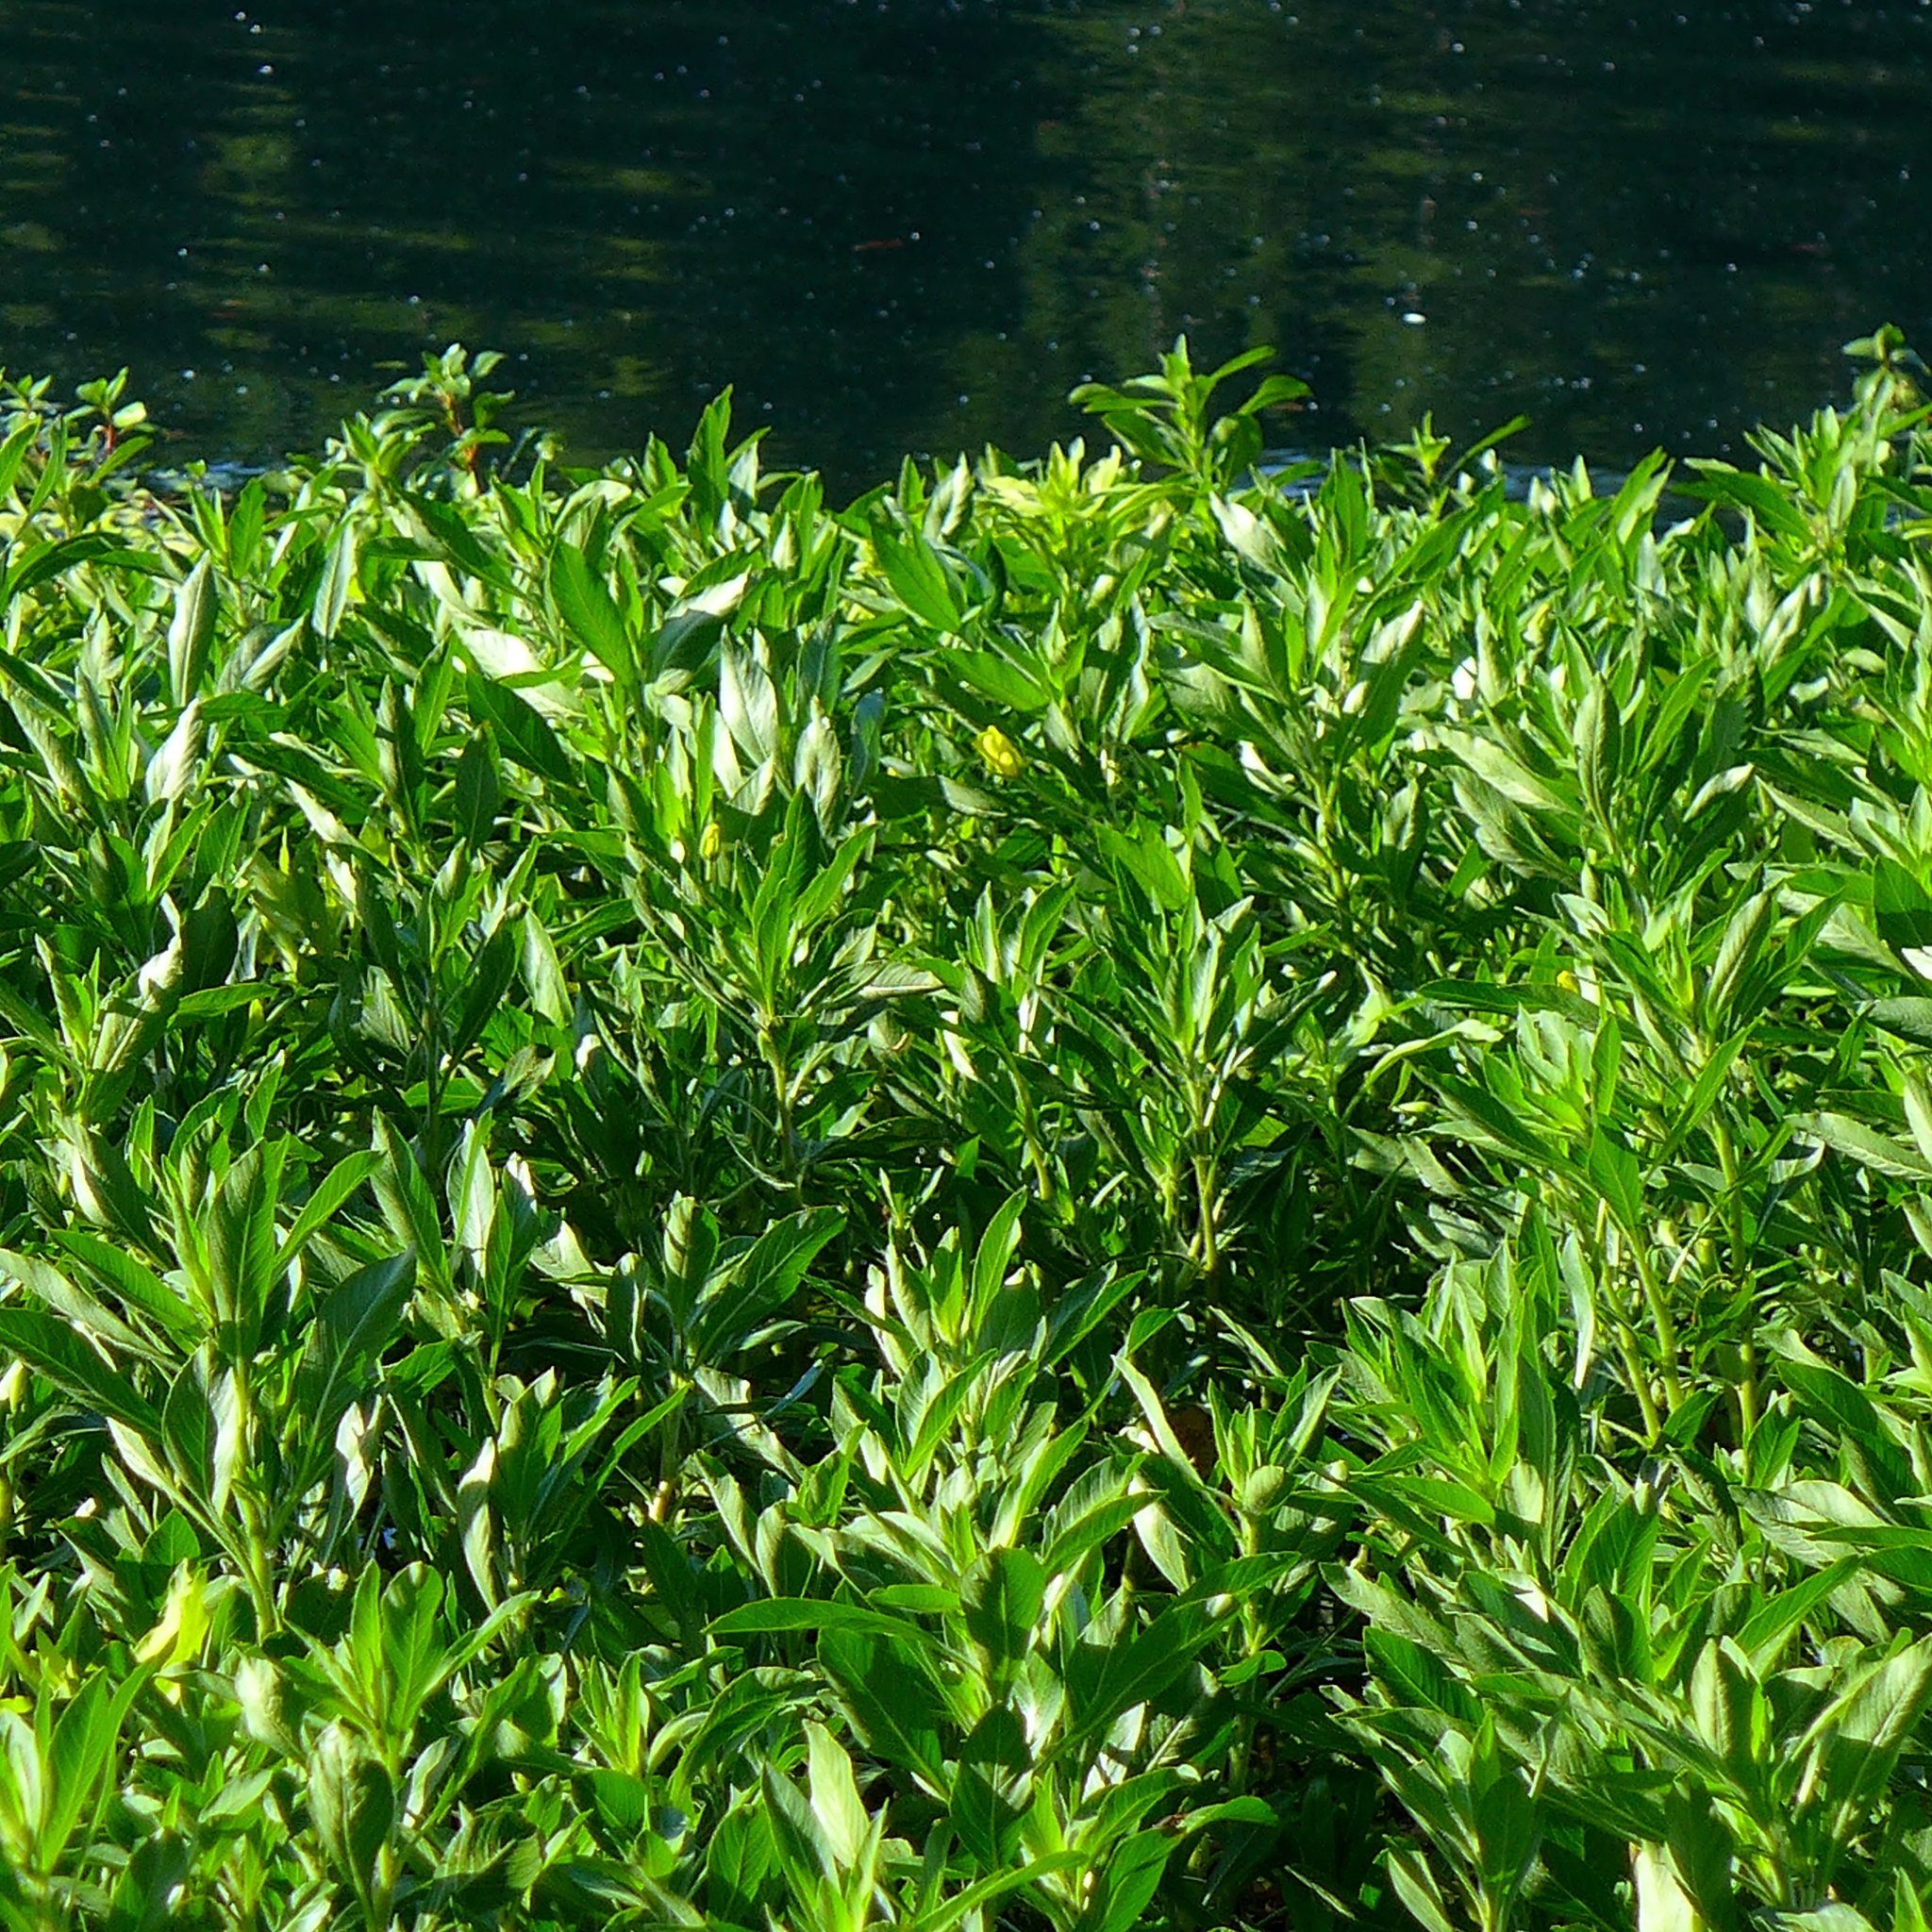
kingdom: Plantae
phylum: Tracheophyta
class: Magnoliopsida
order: Myrtales
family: Onagraceae
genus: Ludwigia
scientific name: Ludwigia peploides
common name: Floating primrose-willow
